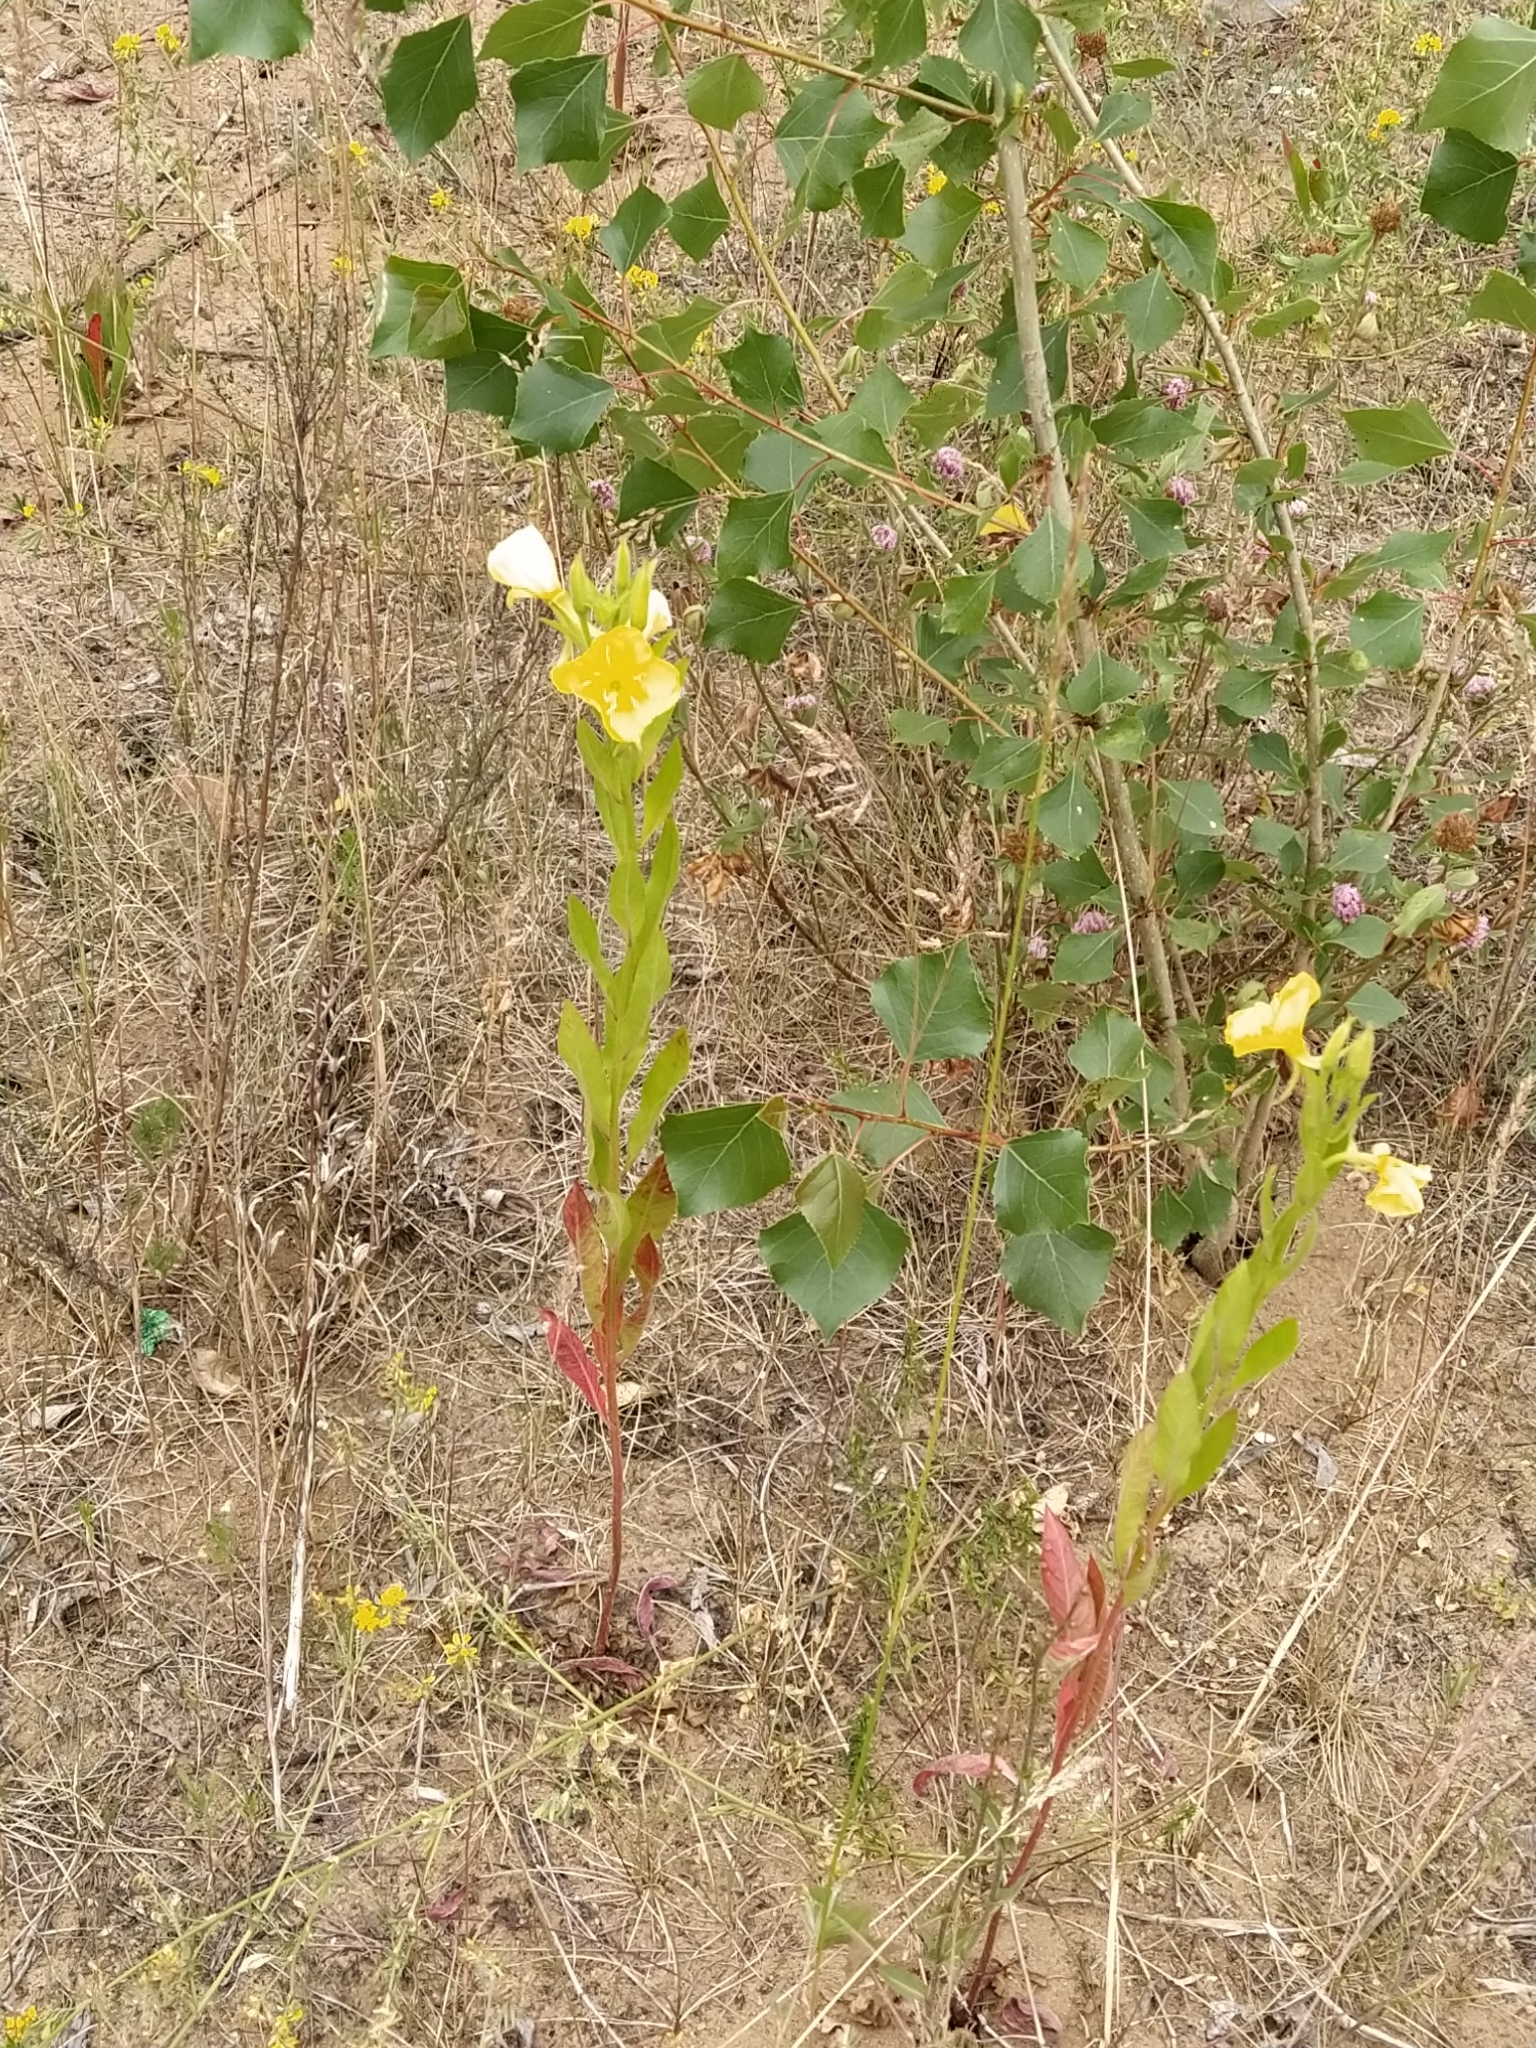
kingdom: Plantae
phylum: Tracheophyta
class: Magnoliopsida
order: Myrtales
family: Onagraceae
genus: Oenothera
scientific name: Oenothera biennis
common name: Common evening-primrose
